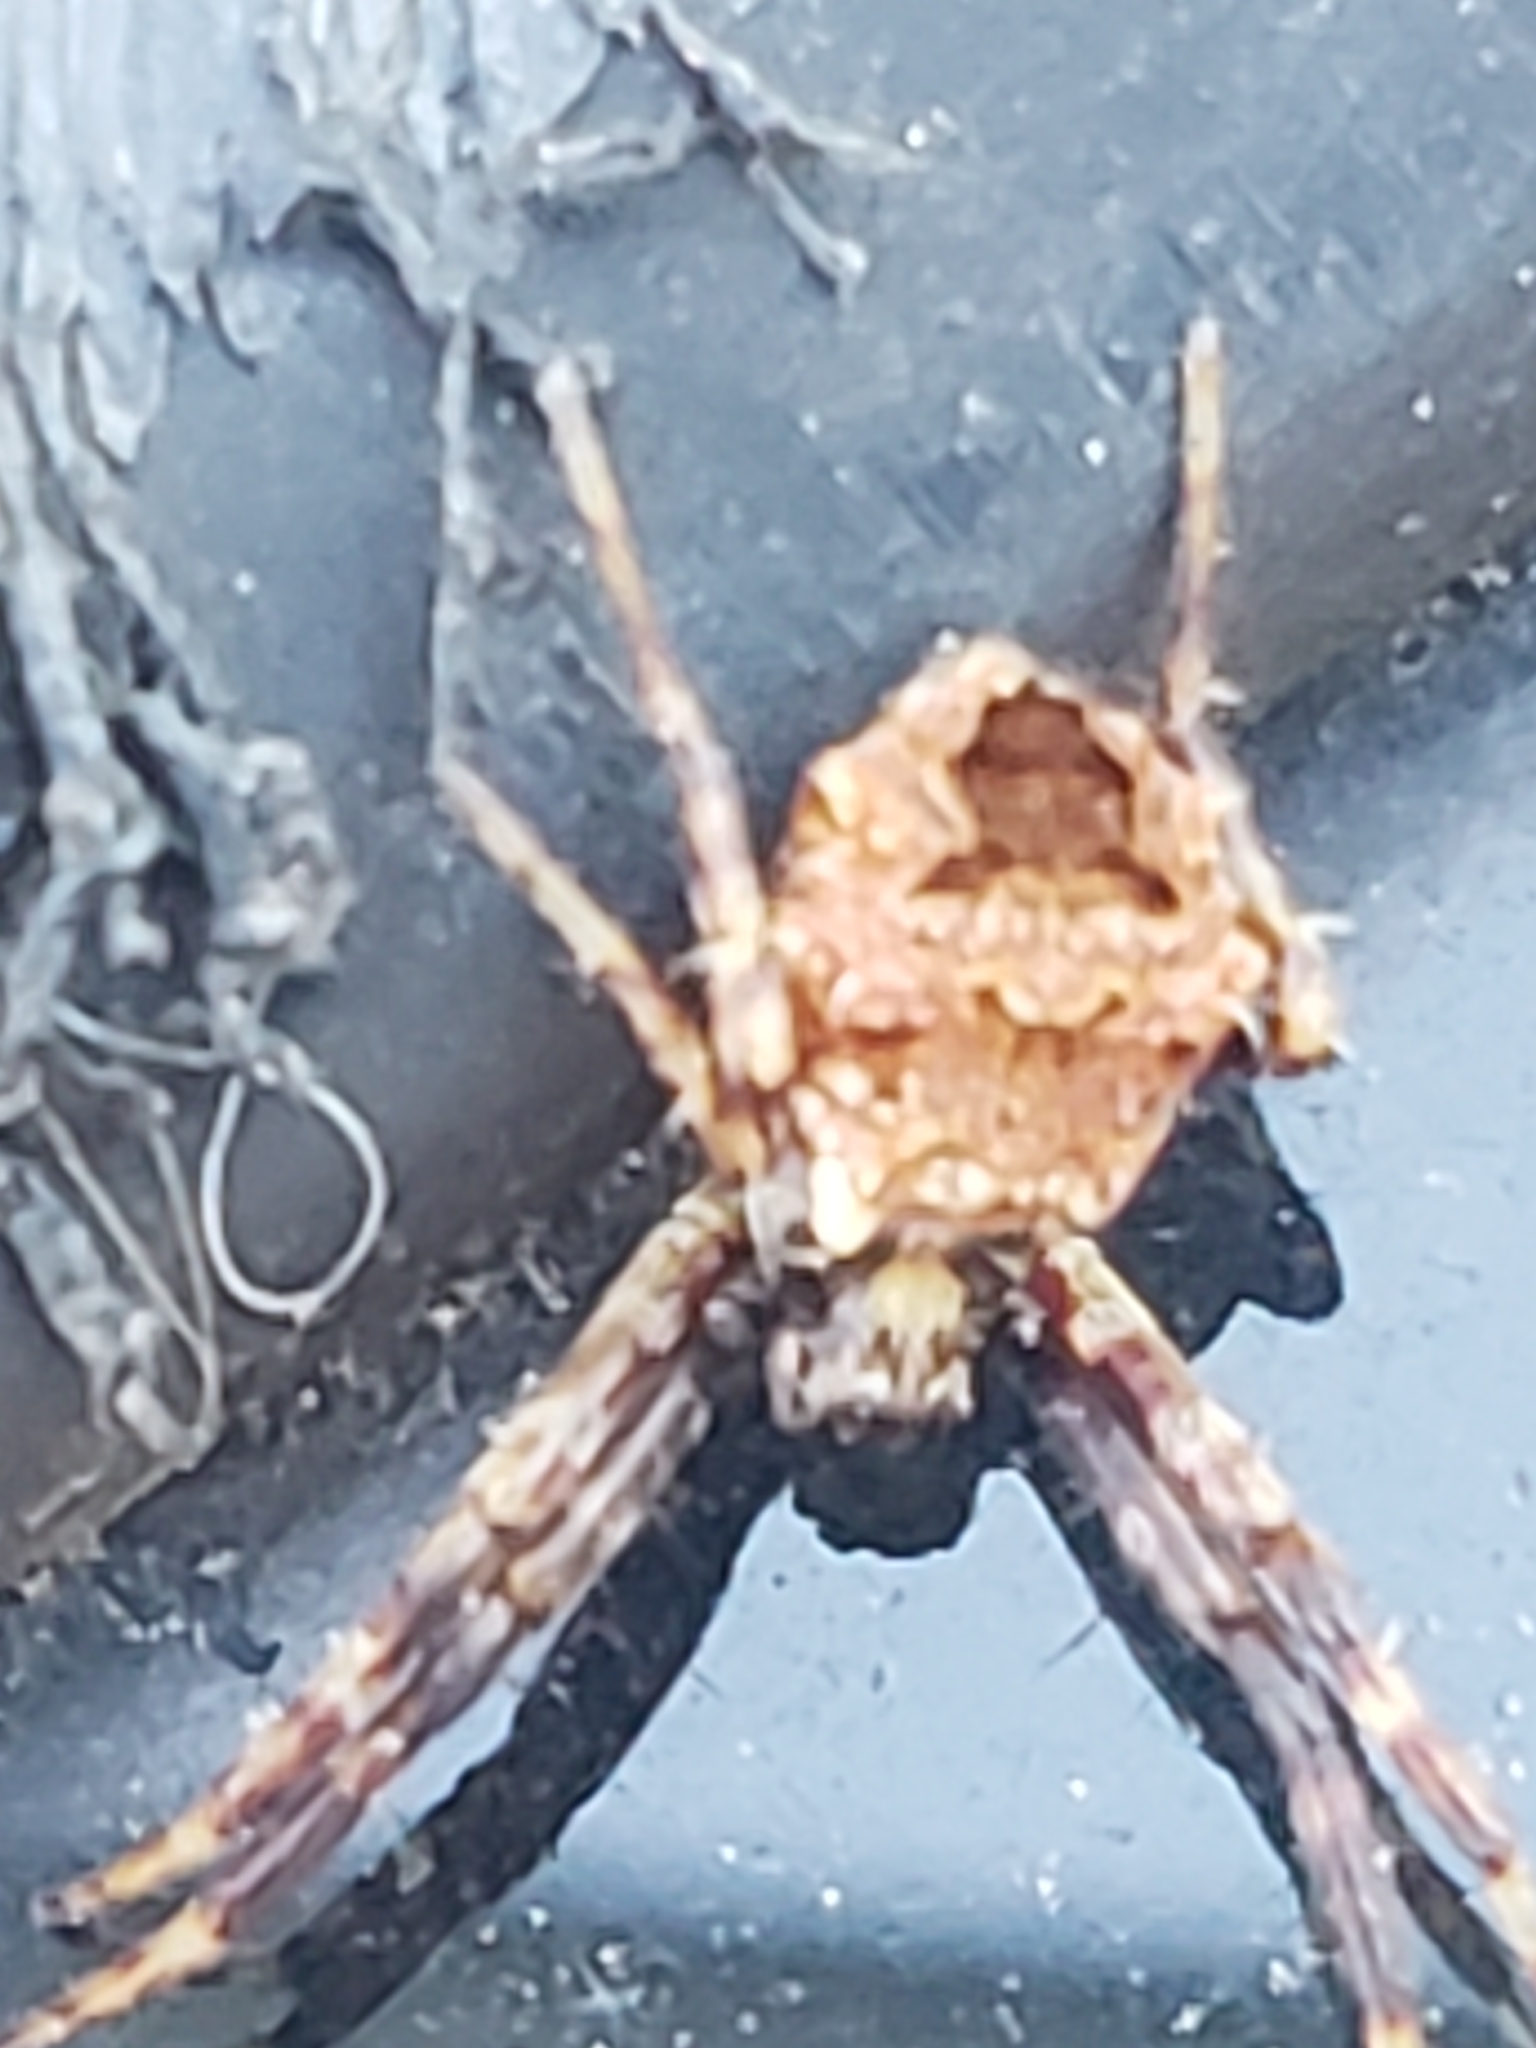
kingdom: Animalia
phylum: Arthropoda
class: Arachnida
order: Araneae
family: Araneidae
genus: Gea
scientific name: Gea heptagon
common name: Orb weavers
